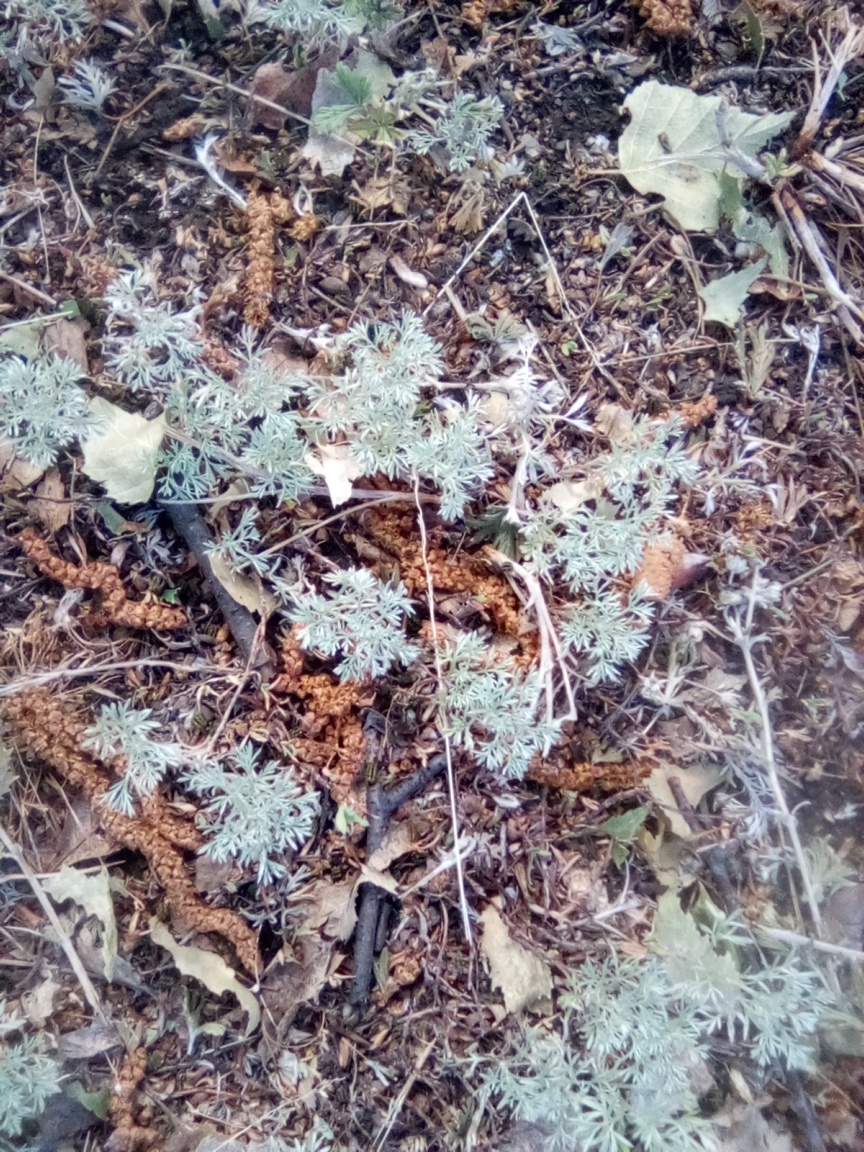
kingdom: Plantae
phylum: Tracheophyta
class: Magnoliopsida
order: Asterales
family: Asteraceae
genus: Artemisia
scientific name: Artemisia austriaca
